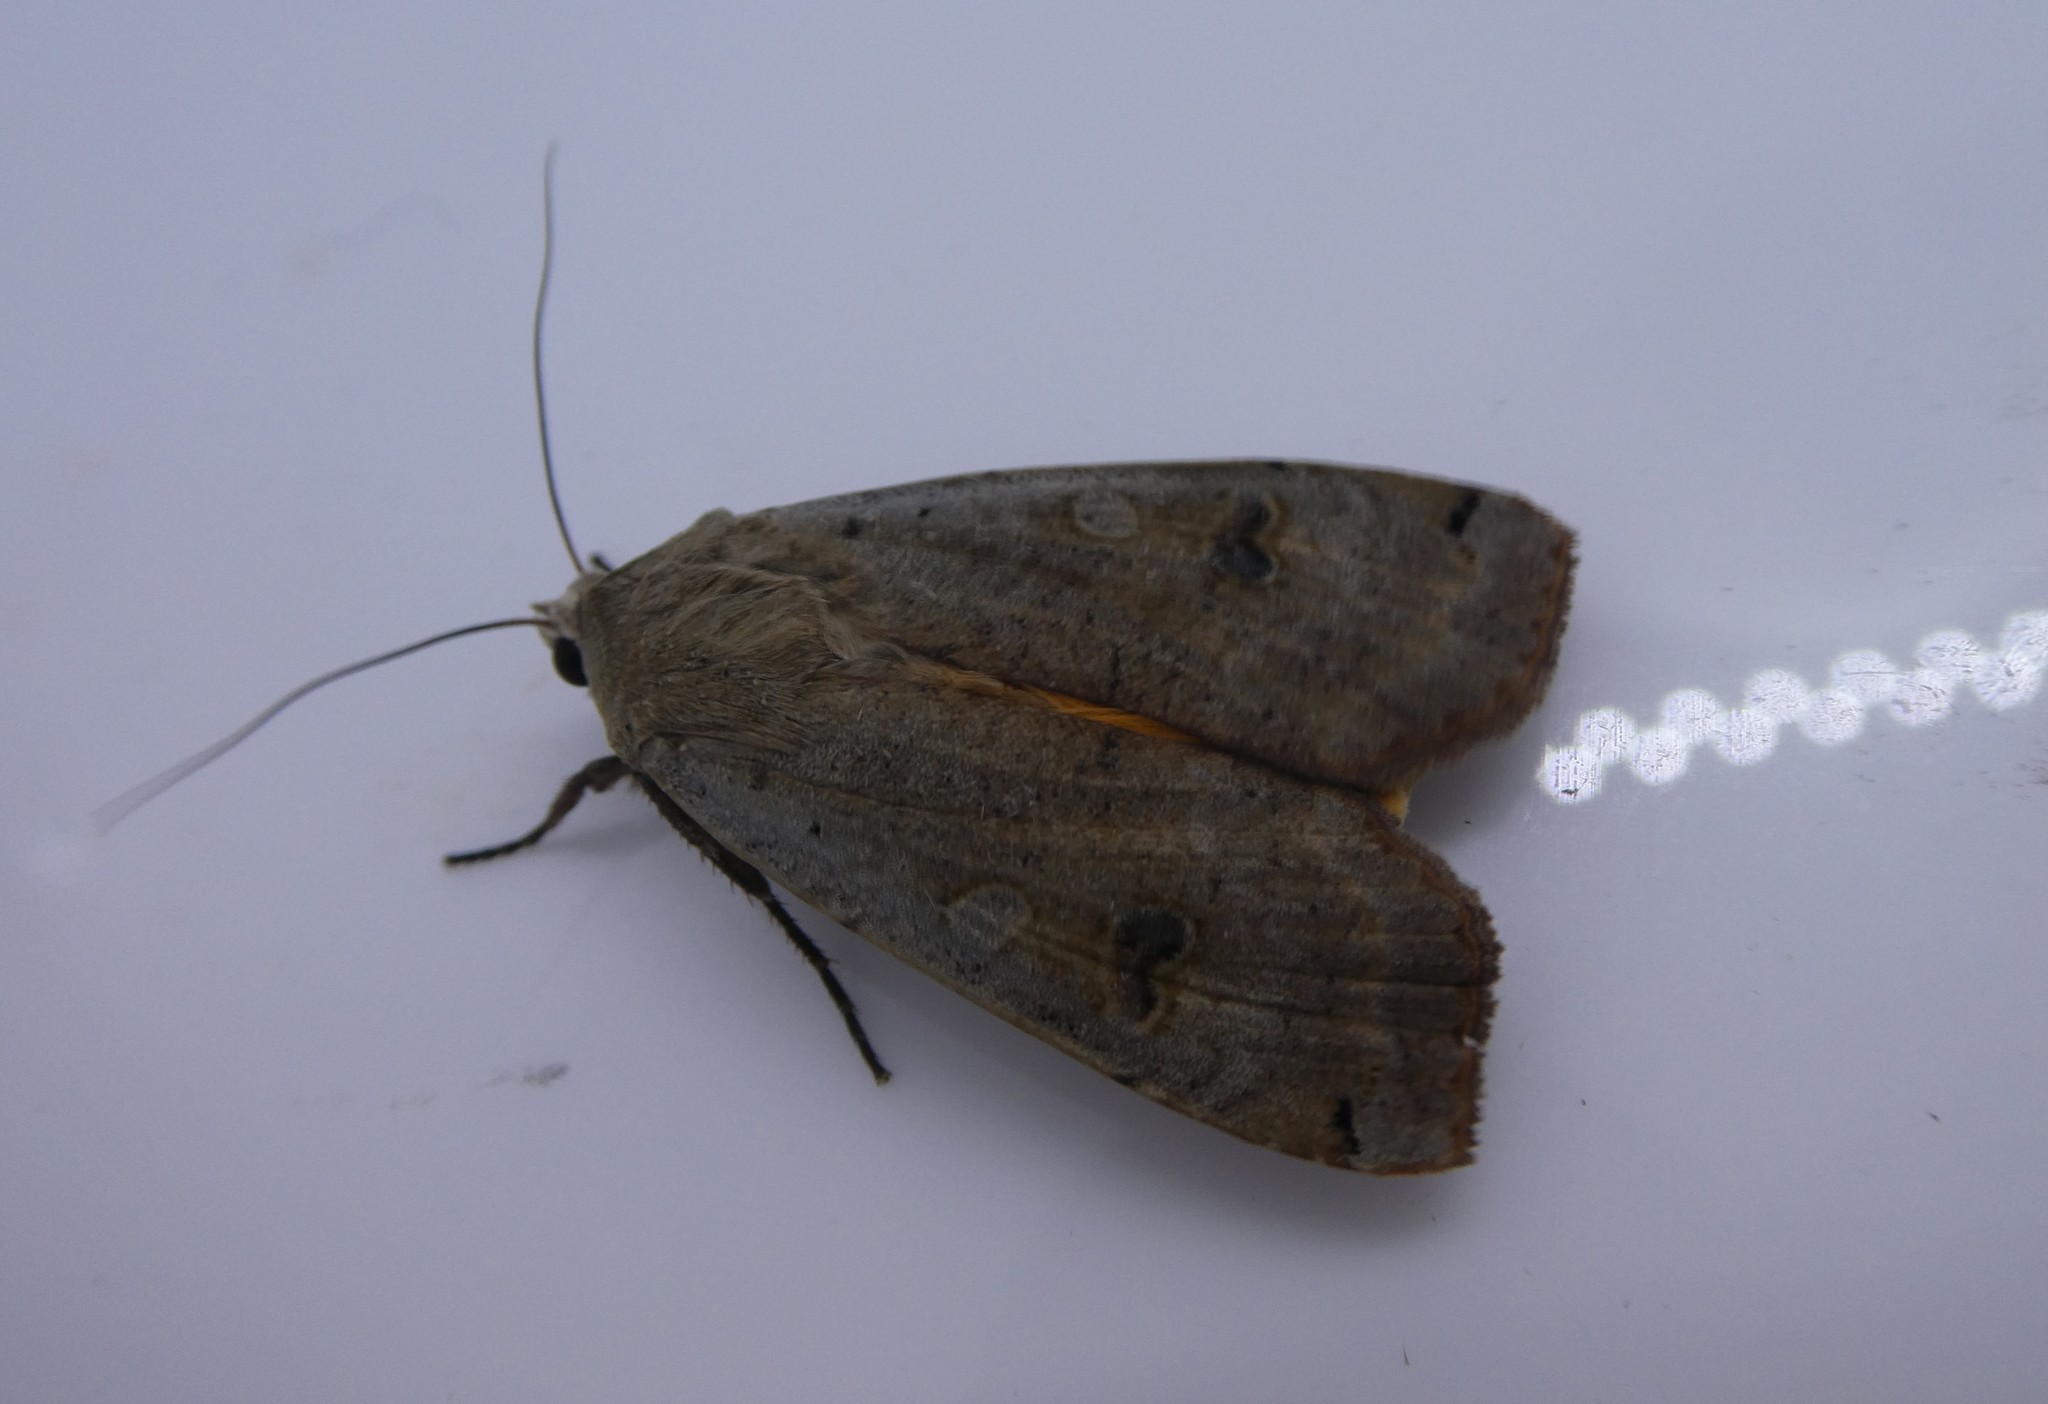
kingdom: Animalia
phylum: Arthropoda
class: Insecta
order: Lepidoptera
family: Noctuidae
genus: Noctua
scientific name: Noctua pronuba
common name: Large yellow underwing
